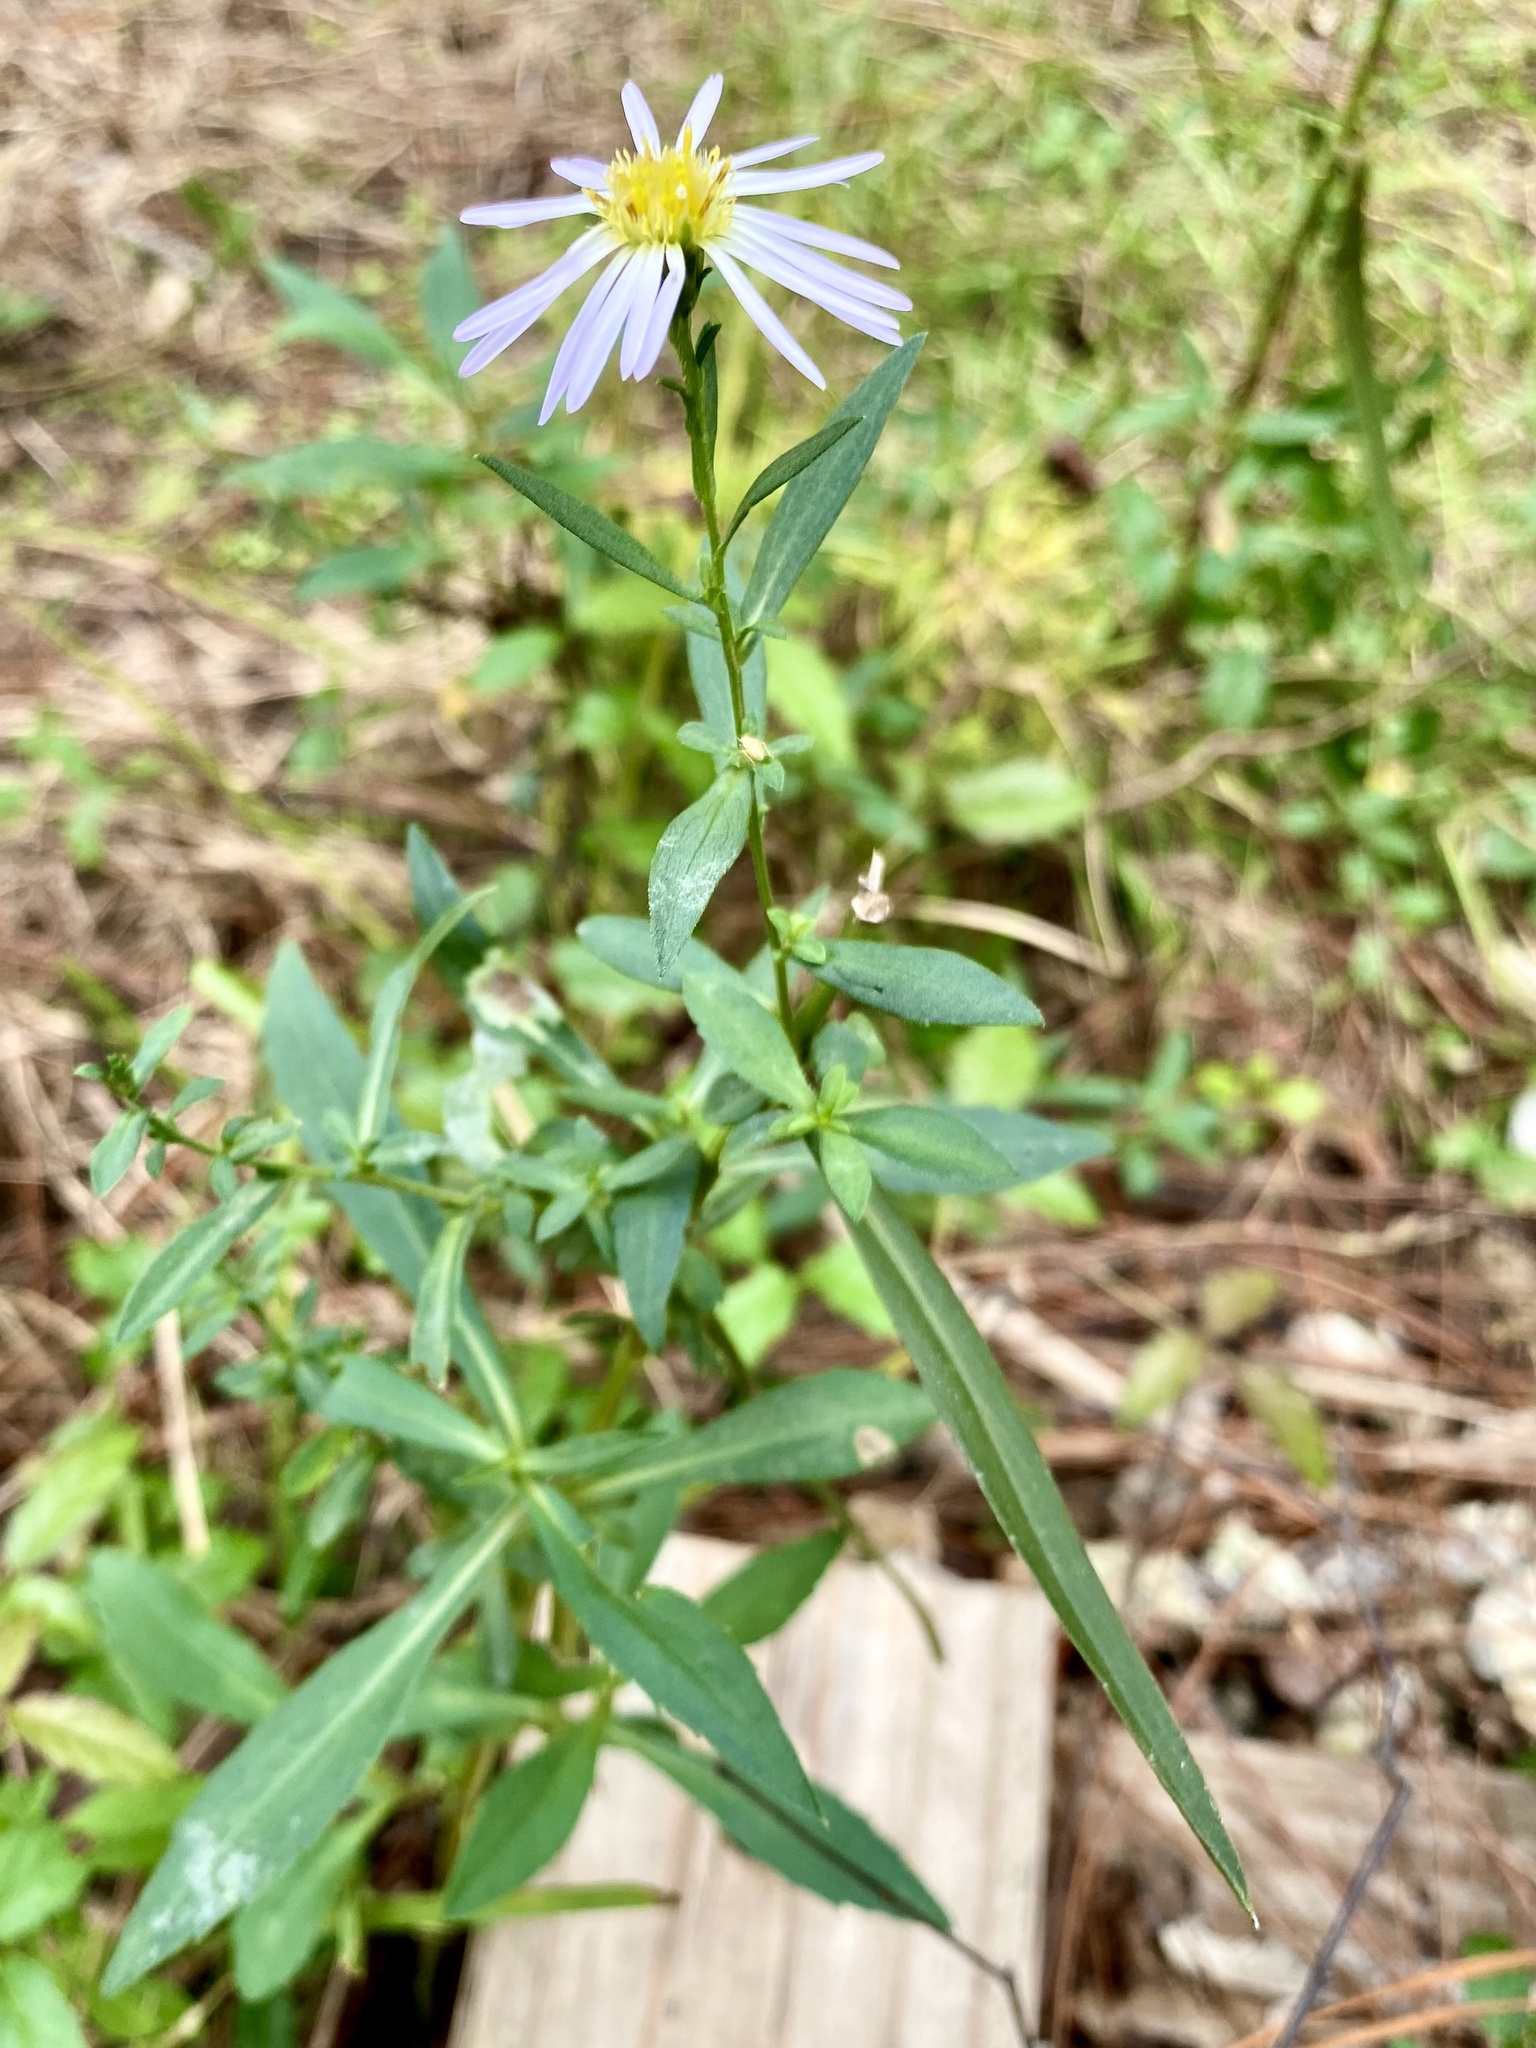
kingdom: Plantae
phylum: Tracheophyta
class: Magnoliopsida
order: Asterales
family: Asteraceae
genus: Symphyotrichum
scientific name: Symphyotrichum simmondsii
